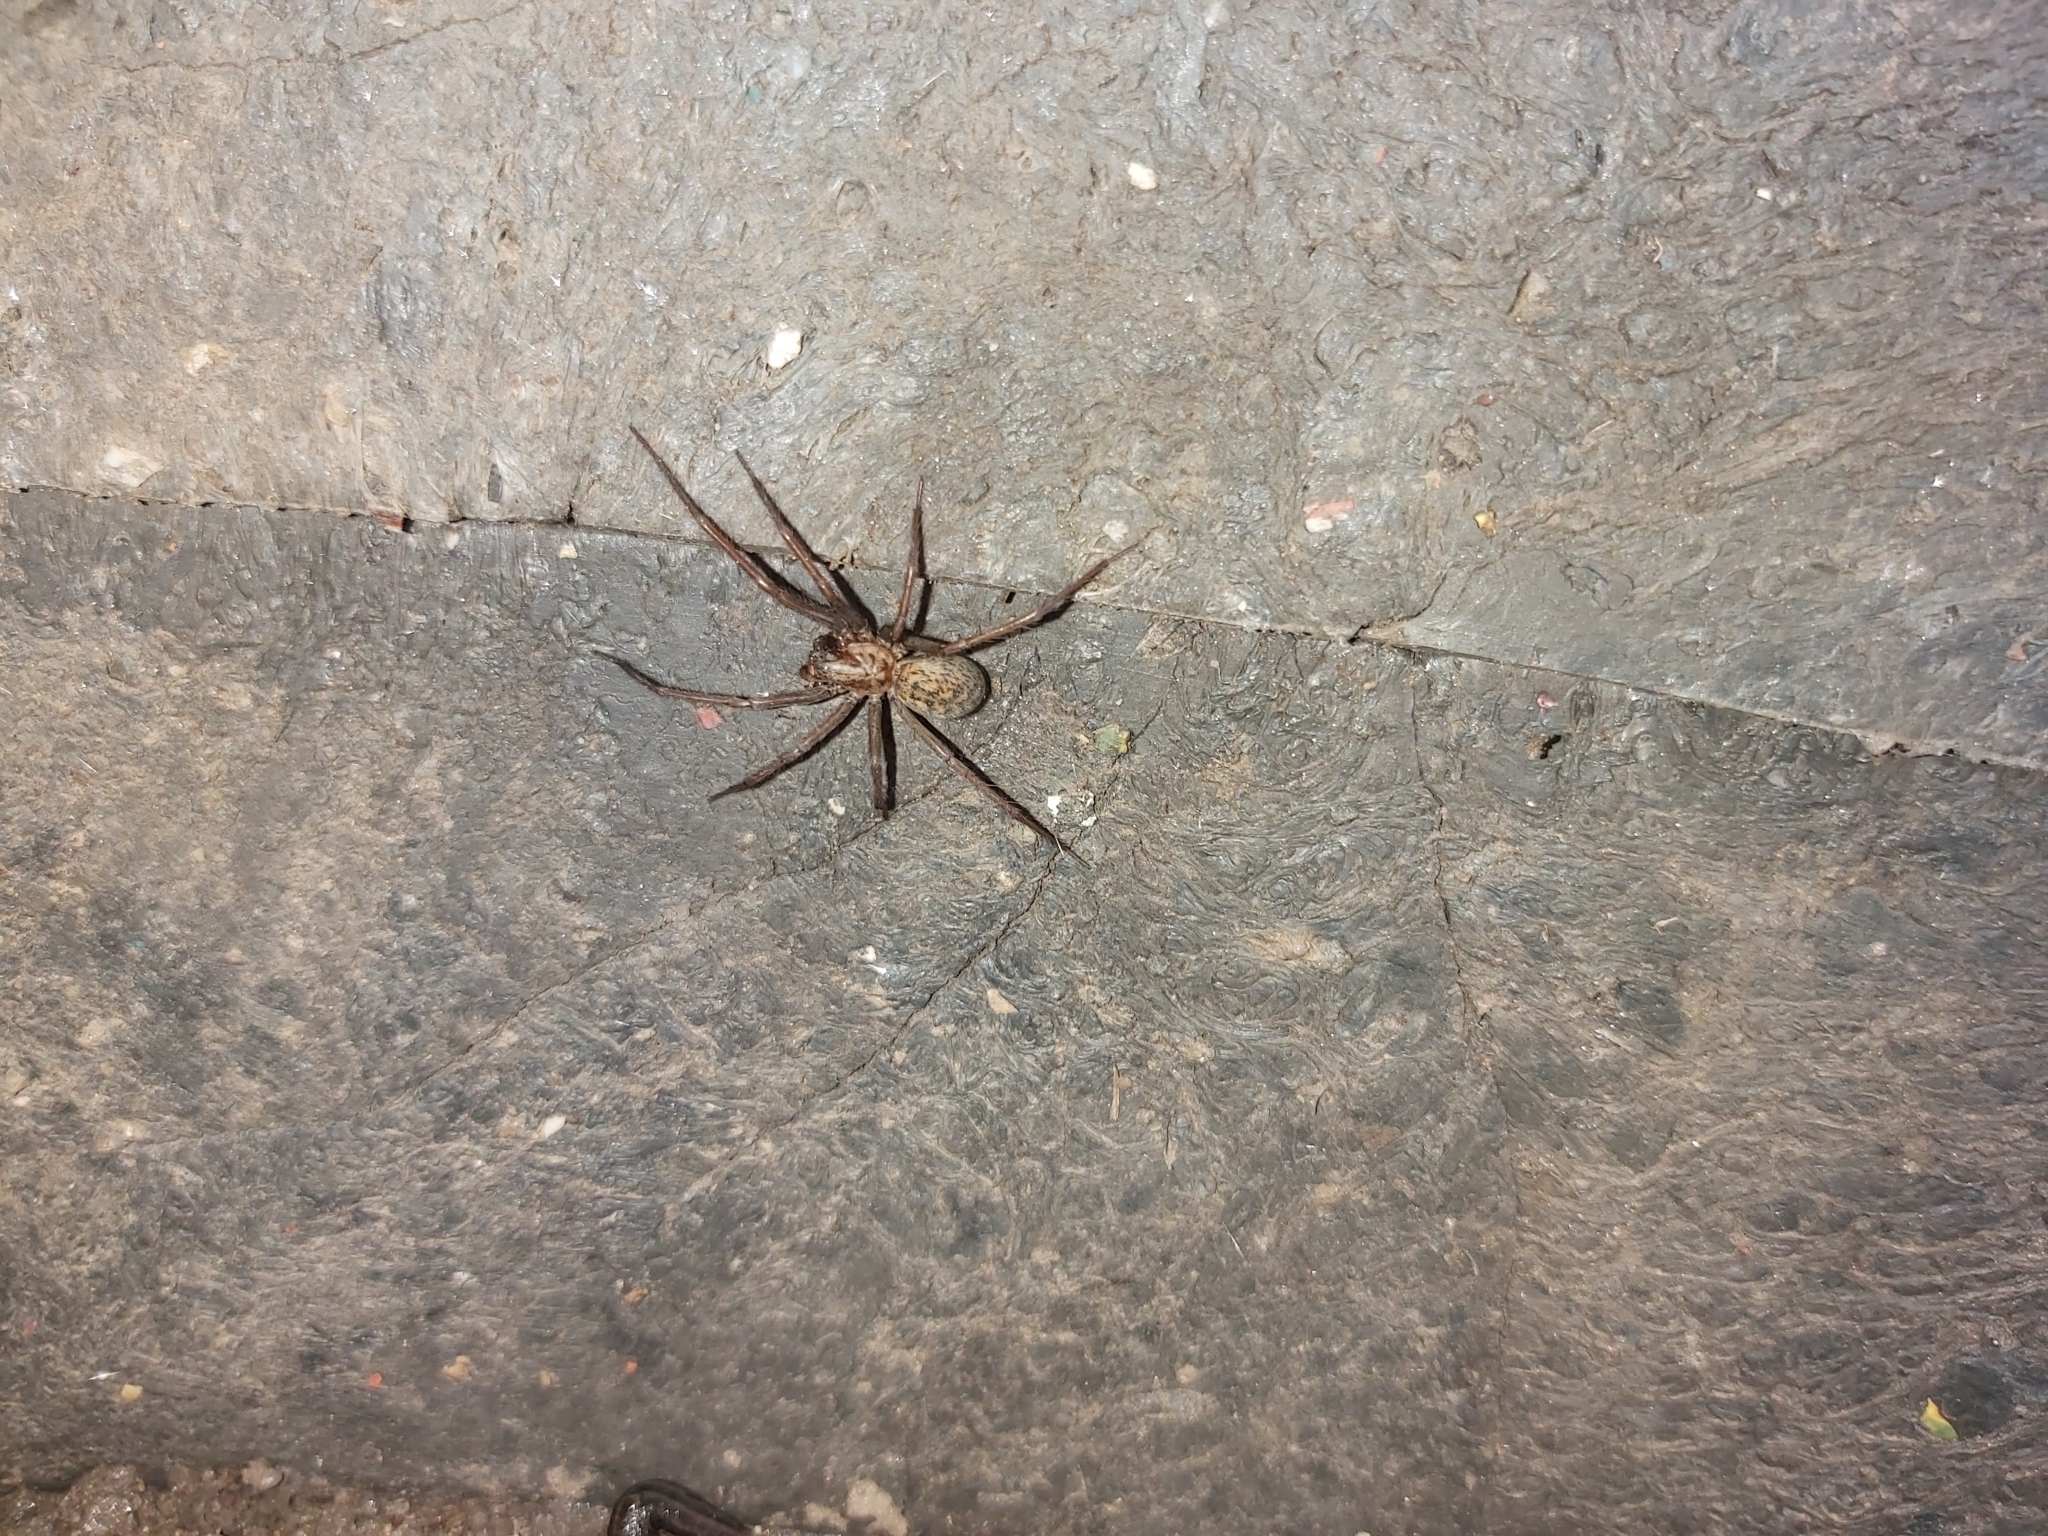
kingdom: Animalia
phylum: Arthropoda
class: Arachnida
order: Araneae
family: Agelenidae
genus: Eratigena
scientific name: Eratigena atrica
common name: Giant house spider
